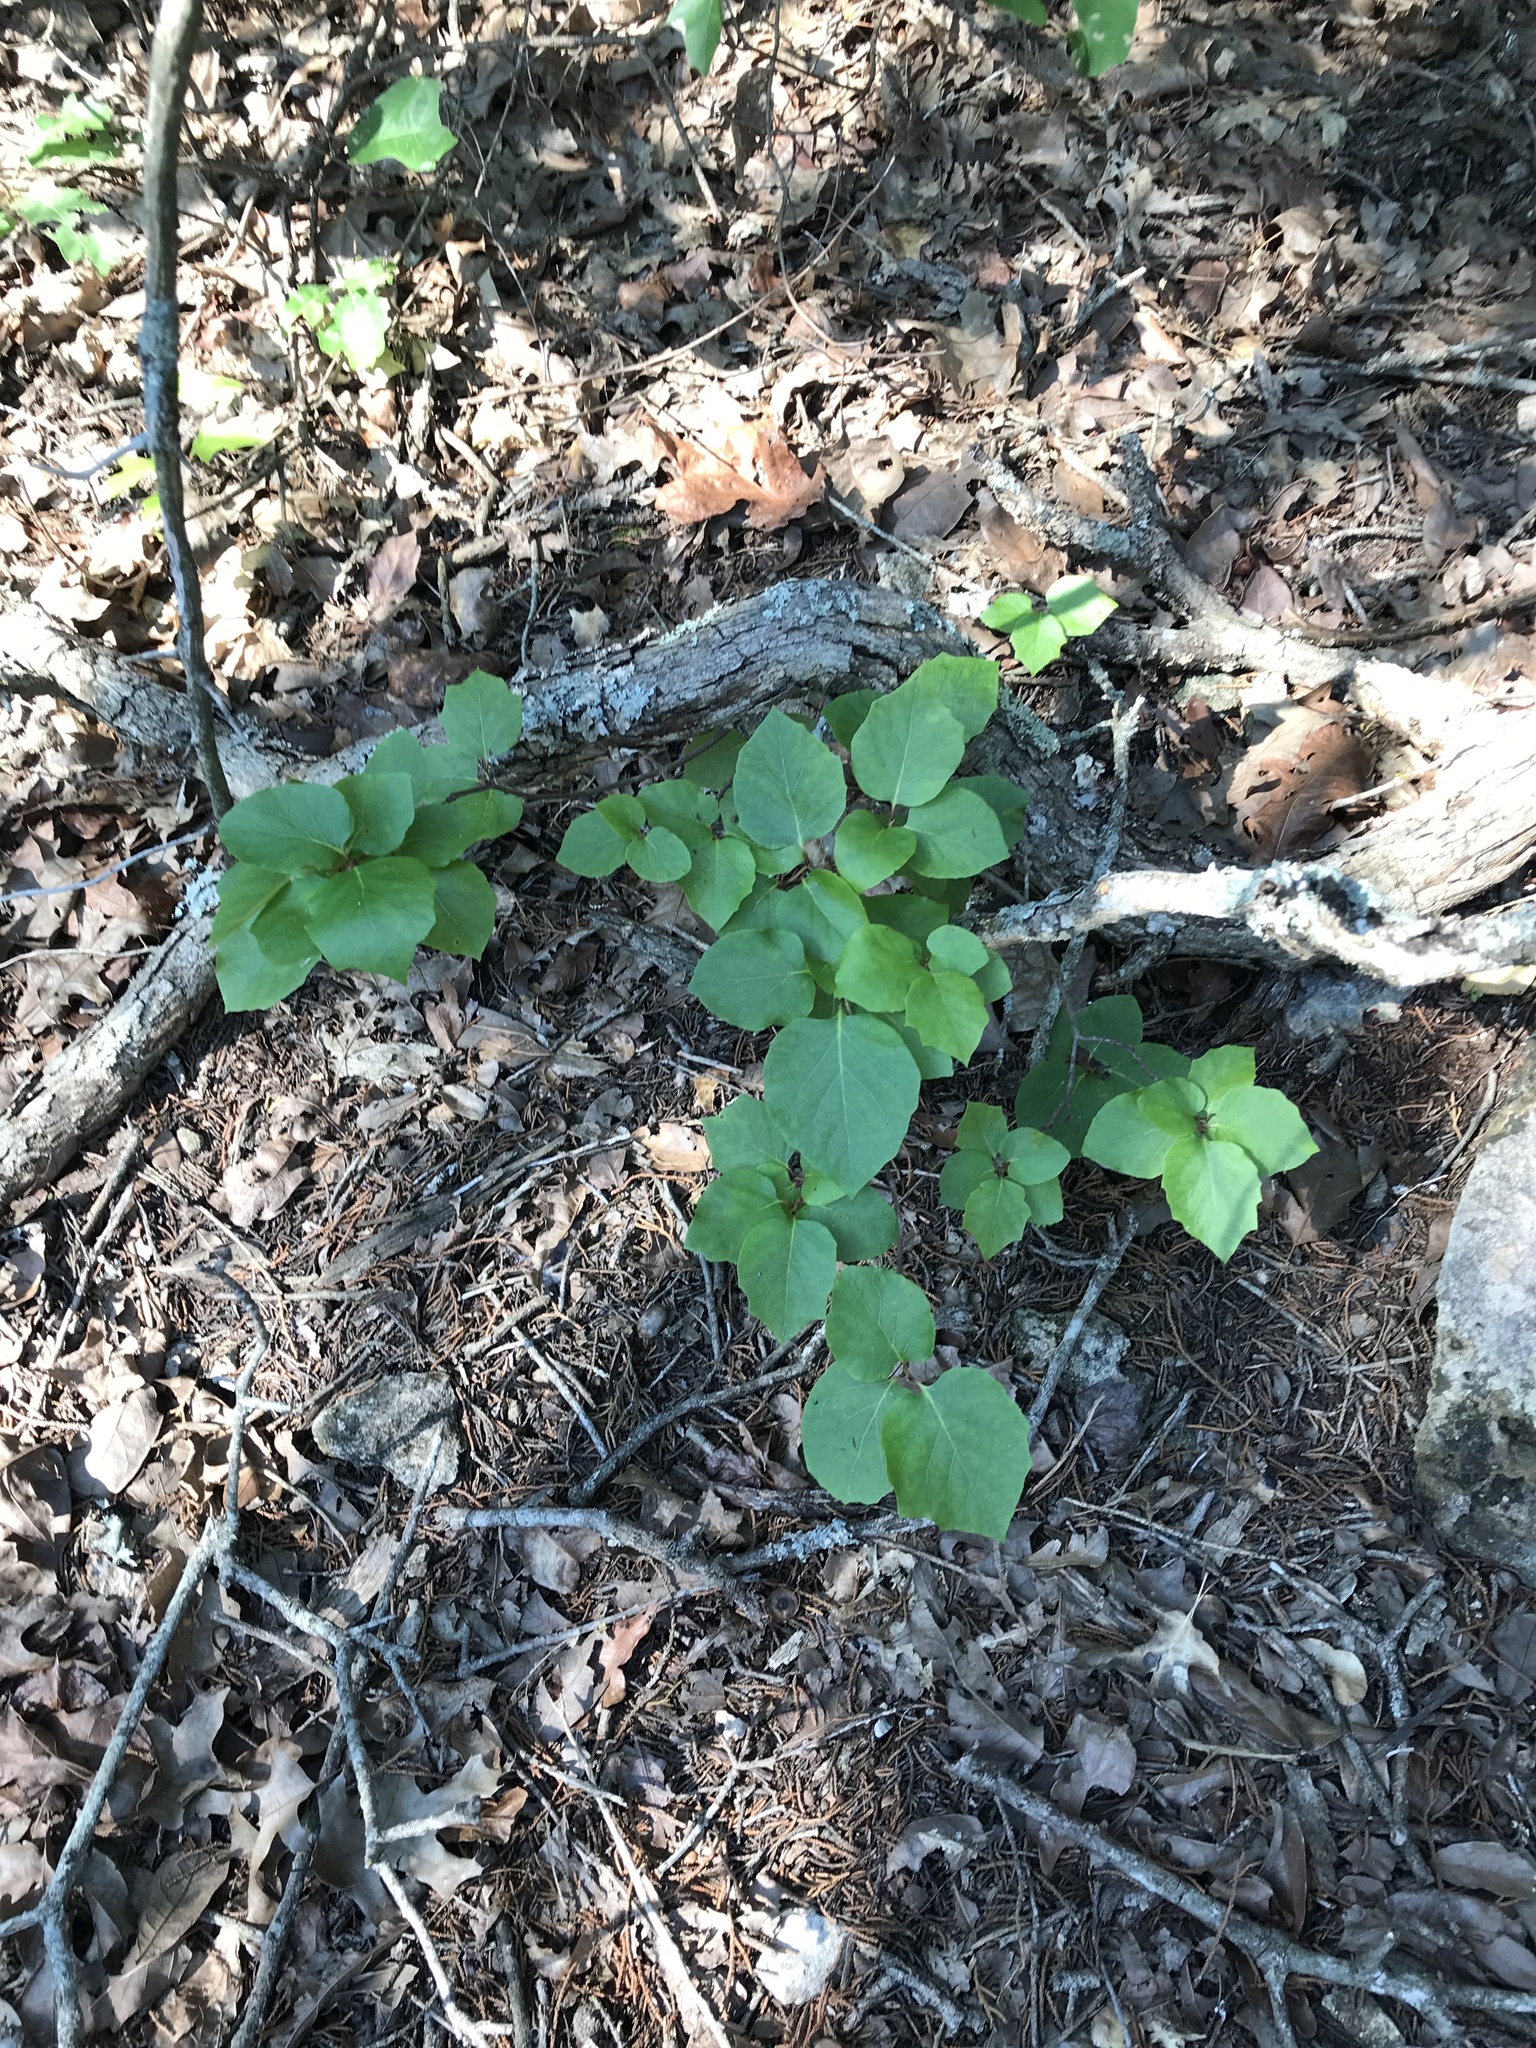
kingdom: Plantae
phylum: Tracheophyta
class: Magnoliopsida
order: Ericales
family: Styracaceae
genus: Styrax
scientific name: Styrax platanifolius
